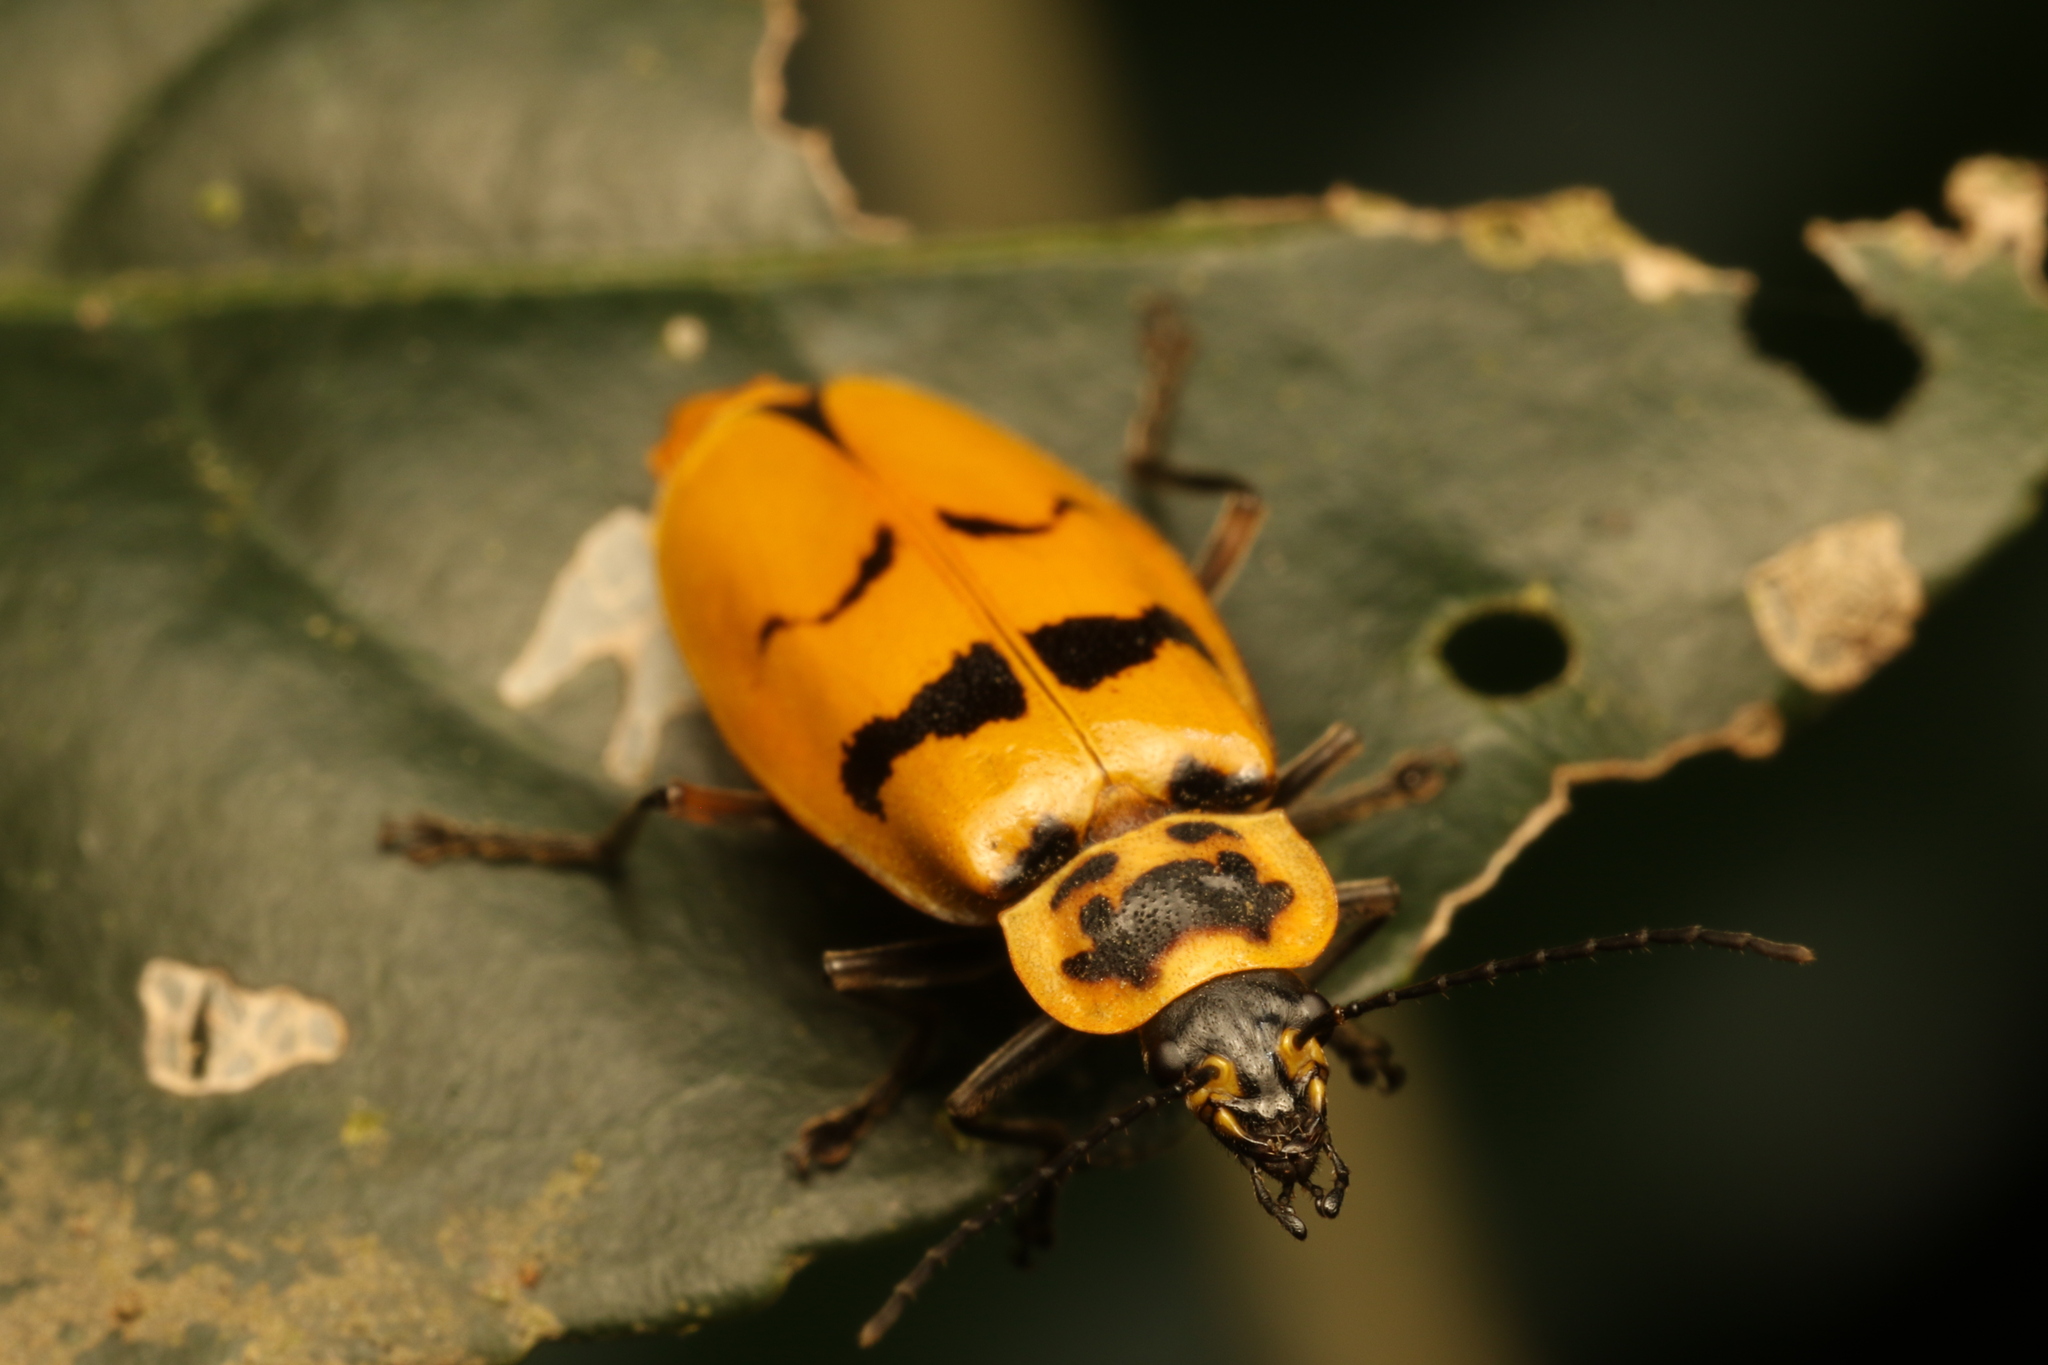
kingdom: Animalia
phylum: Arthropoda
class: Insecta
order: Coleoptera
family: Cantharidae
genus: Chauliognathus
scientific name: Chauliognathus
